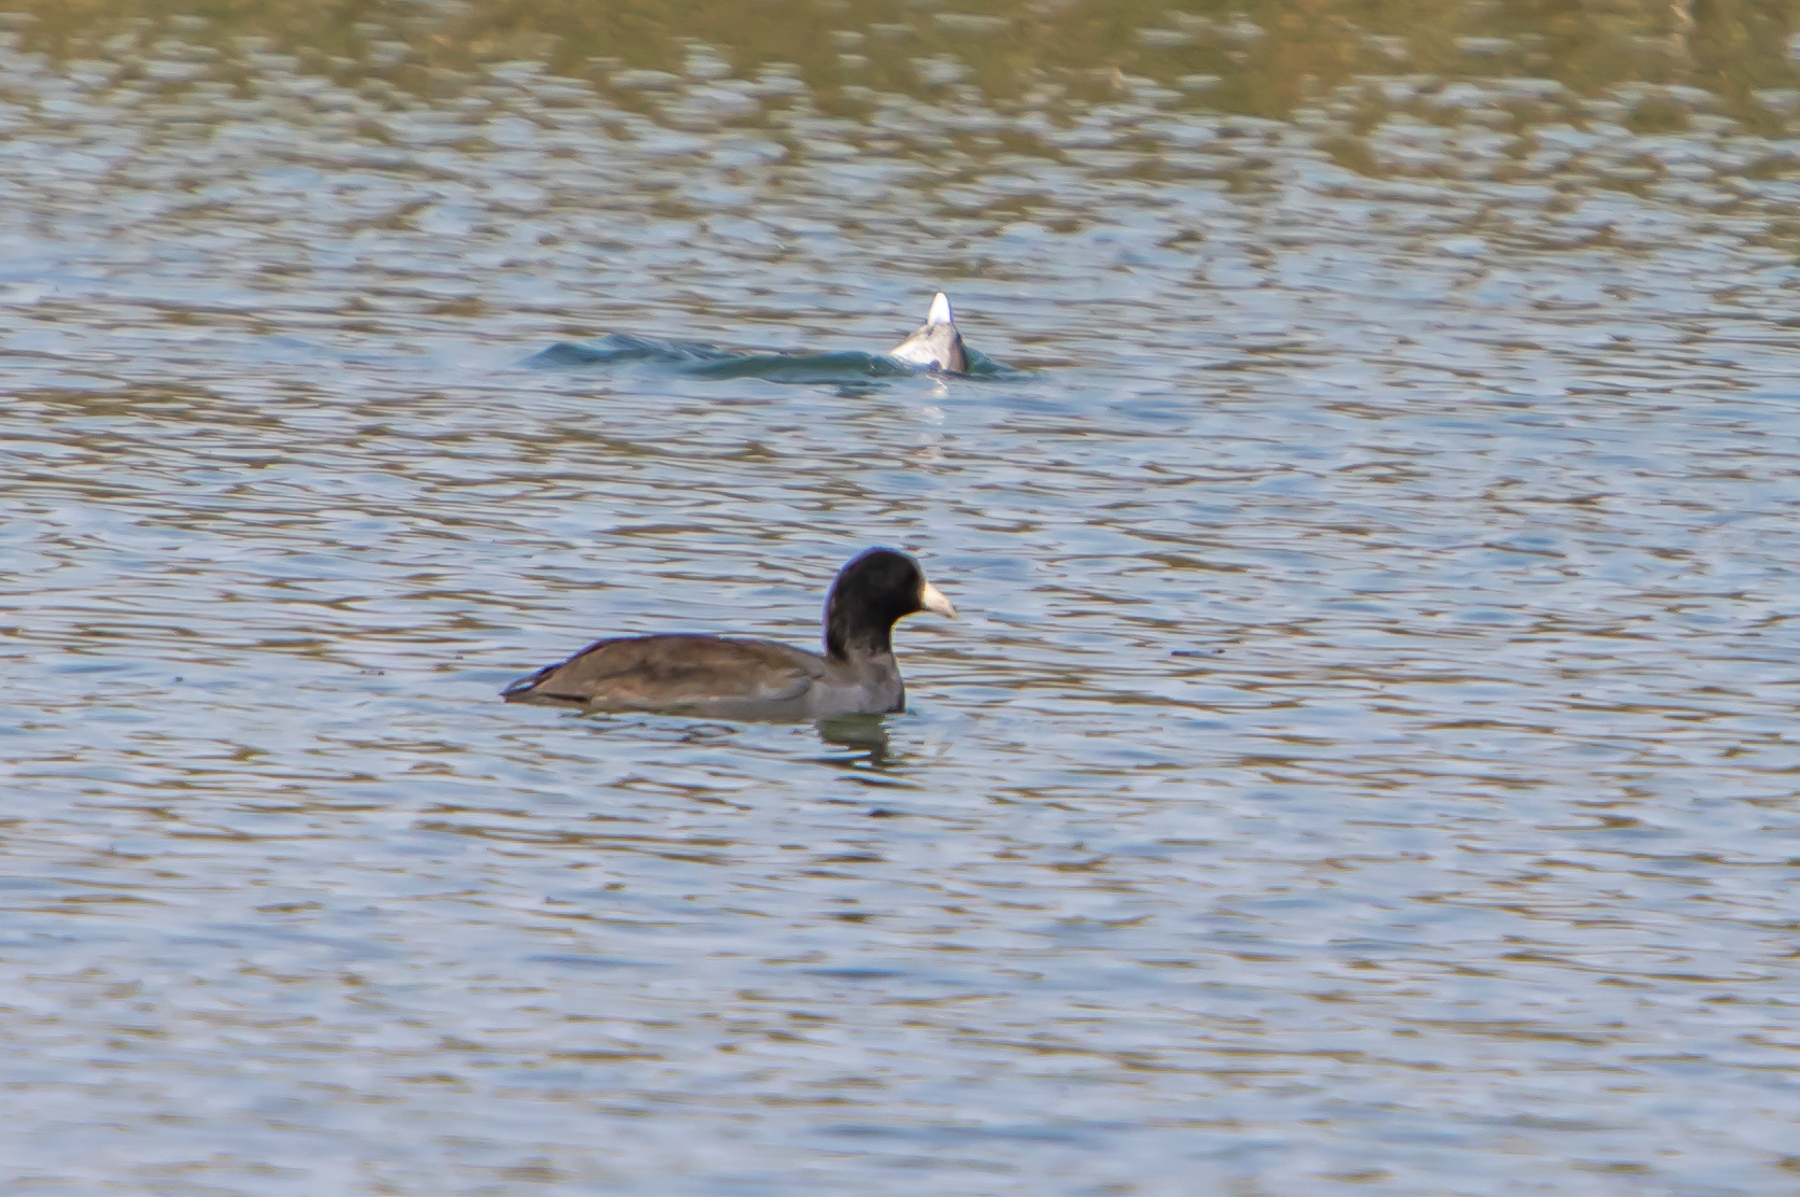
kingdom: Animalia
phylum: Chordata
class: Aves
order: Gruiformes
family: Rallidae
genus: Fulica
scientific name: Fulica americana
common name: American coot
